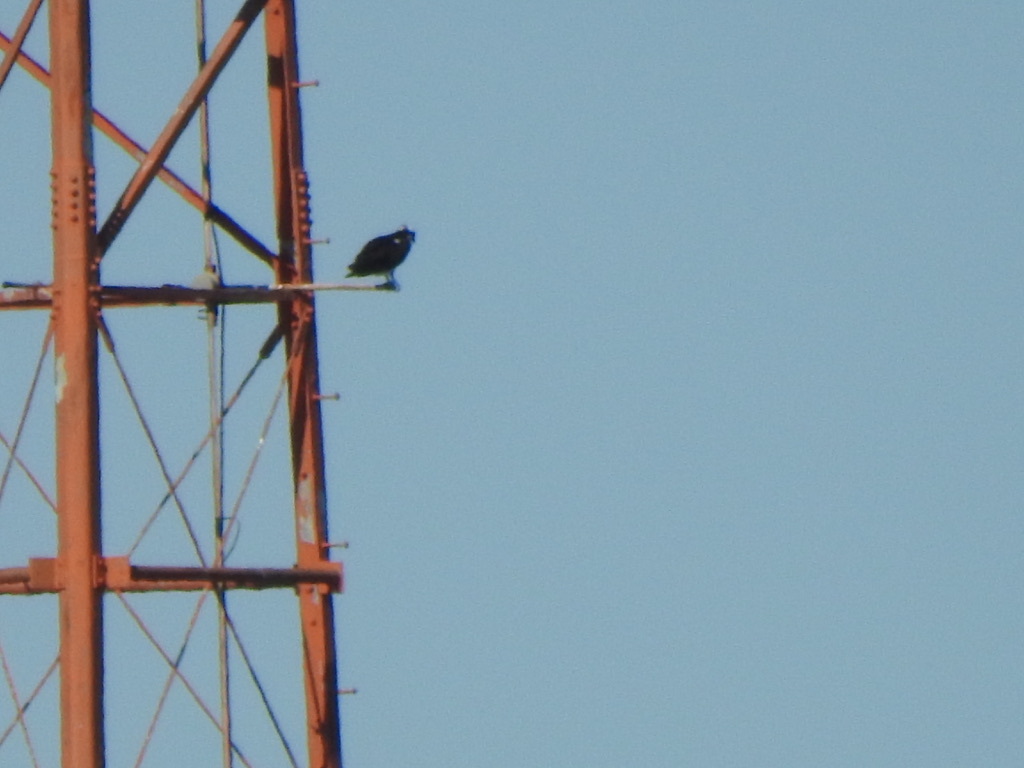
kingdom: Animalia
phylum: Chordata
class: Aves
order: Accipitriformes
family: Pandionidae
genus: Pandion
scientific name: Pandion haliaetus
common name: Osprey
